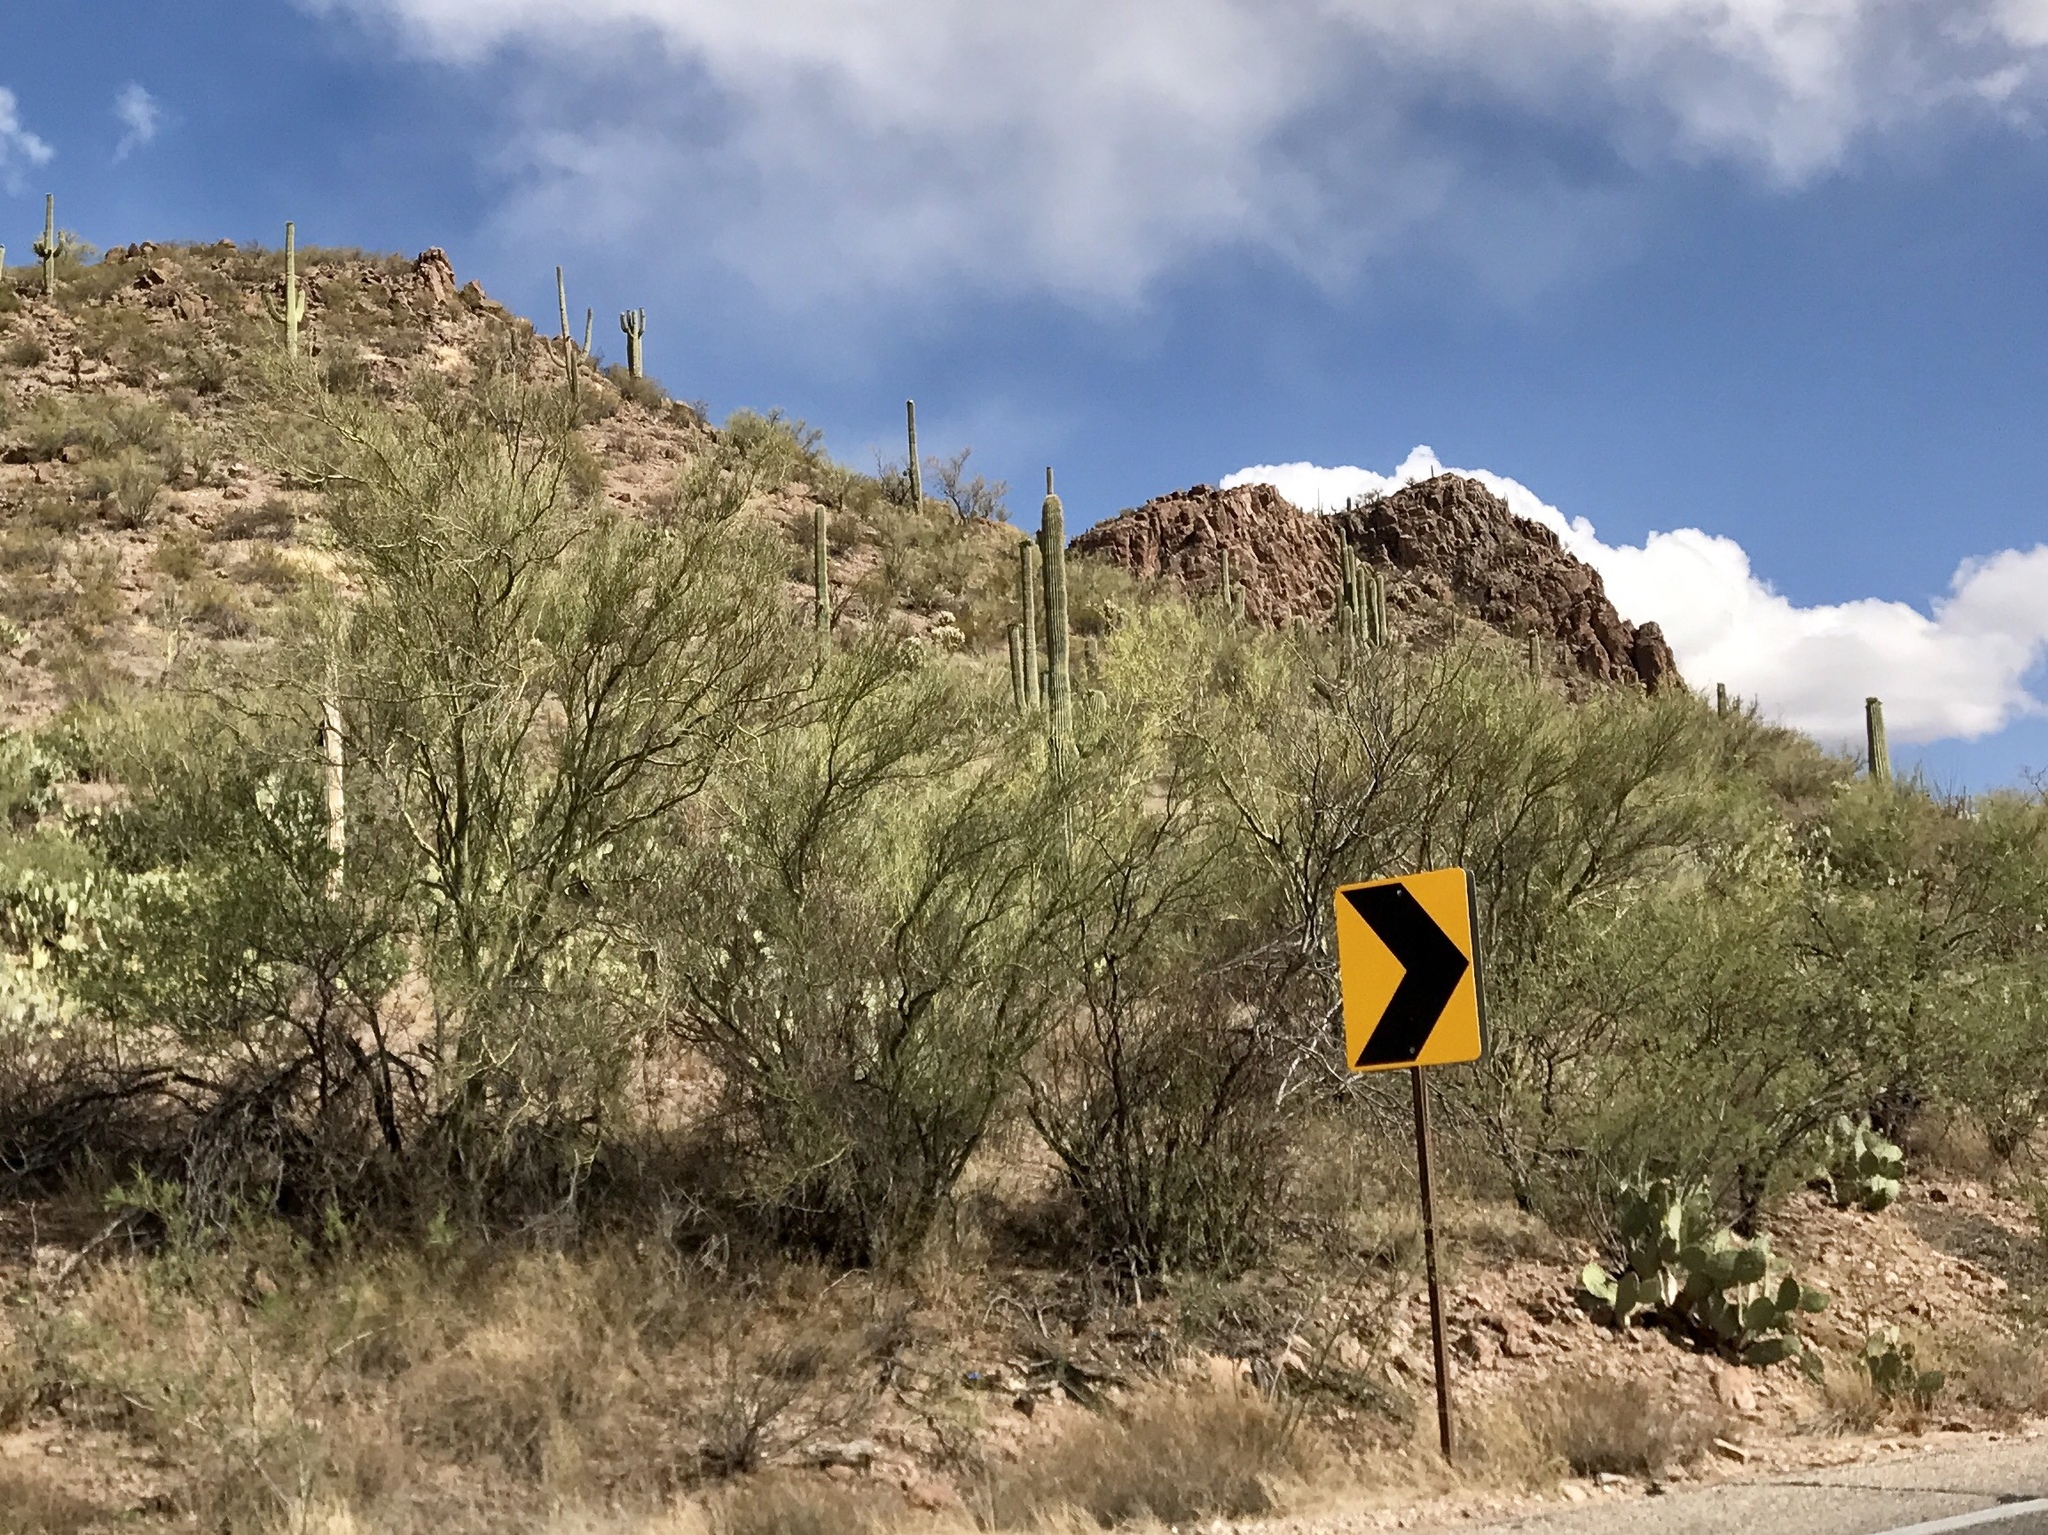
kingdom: Plantae
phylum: Tracheophyta
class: Magnoliopsida
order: Fabales
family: Fabaceae
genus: Parkinsonia
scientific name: Parkinsonia microphylla
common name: Yellow paloverde
